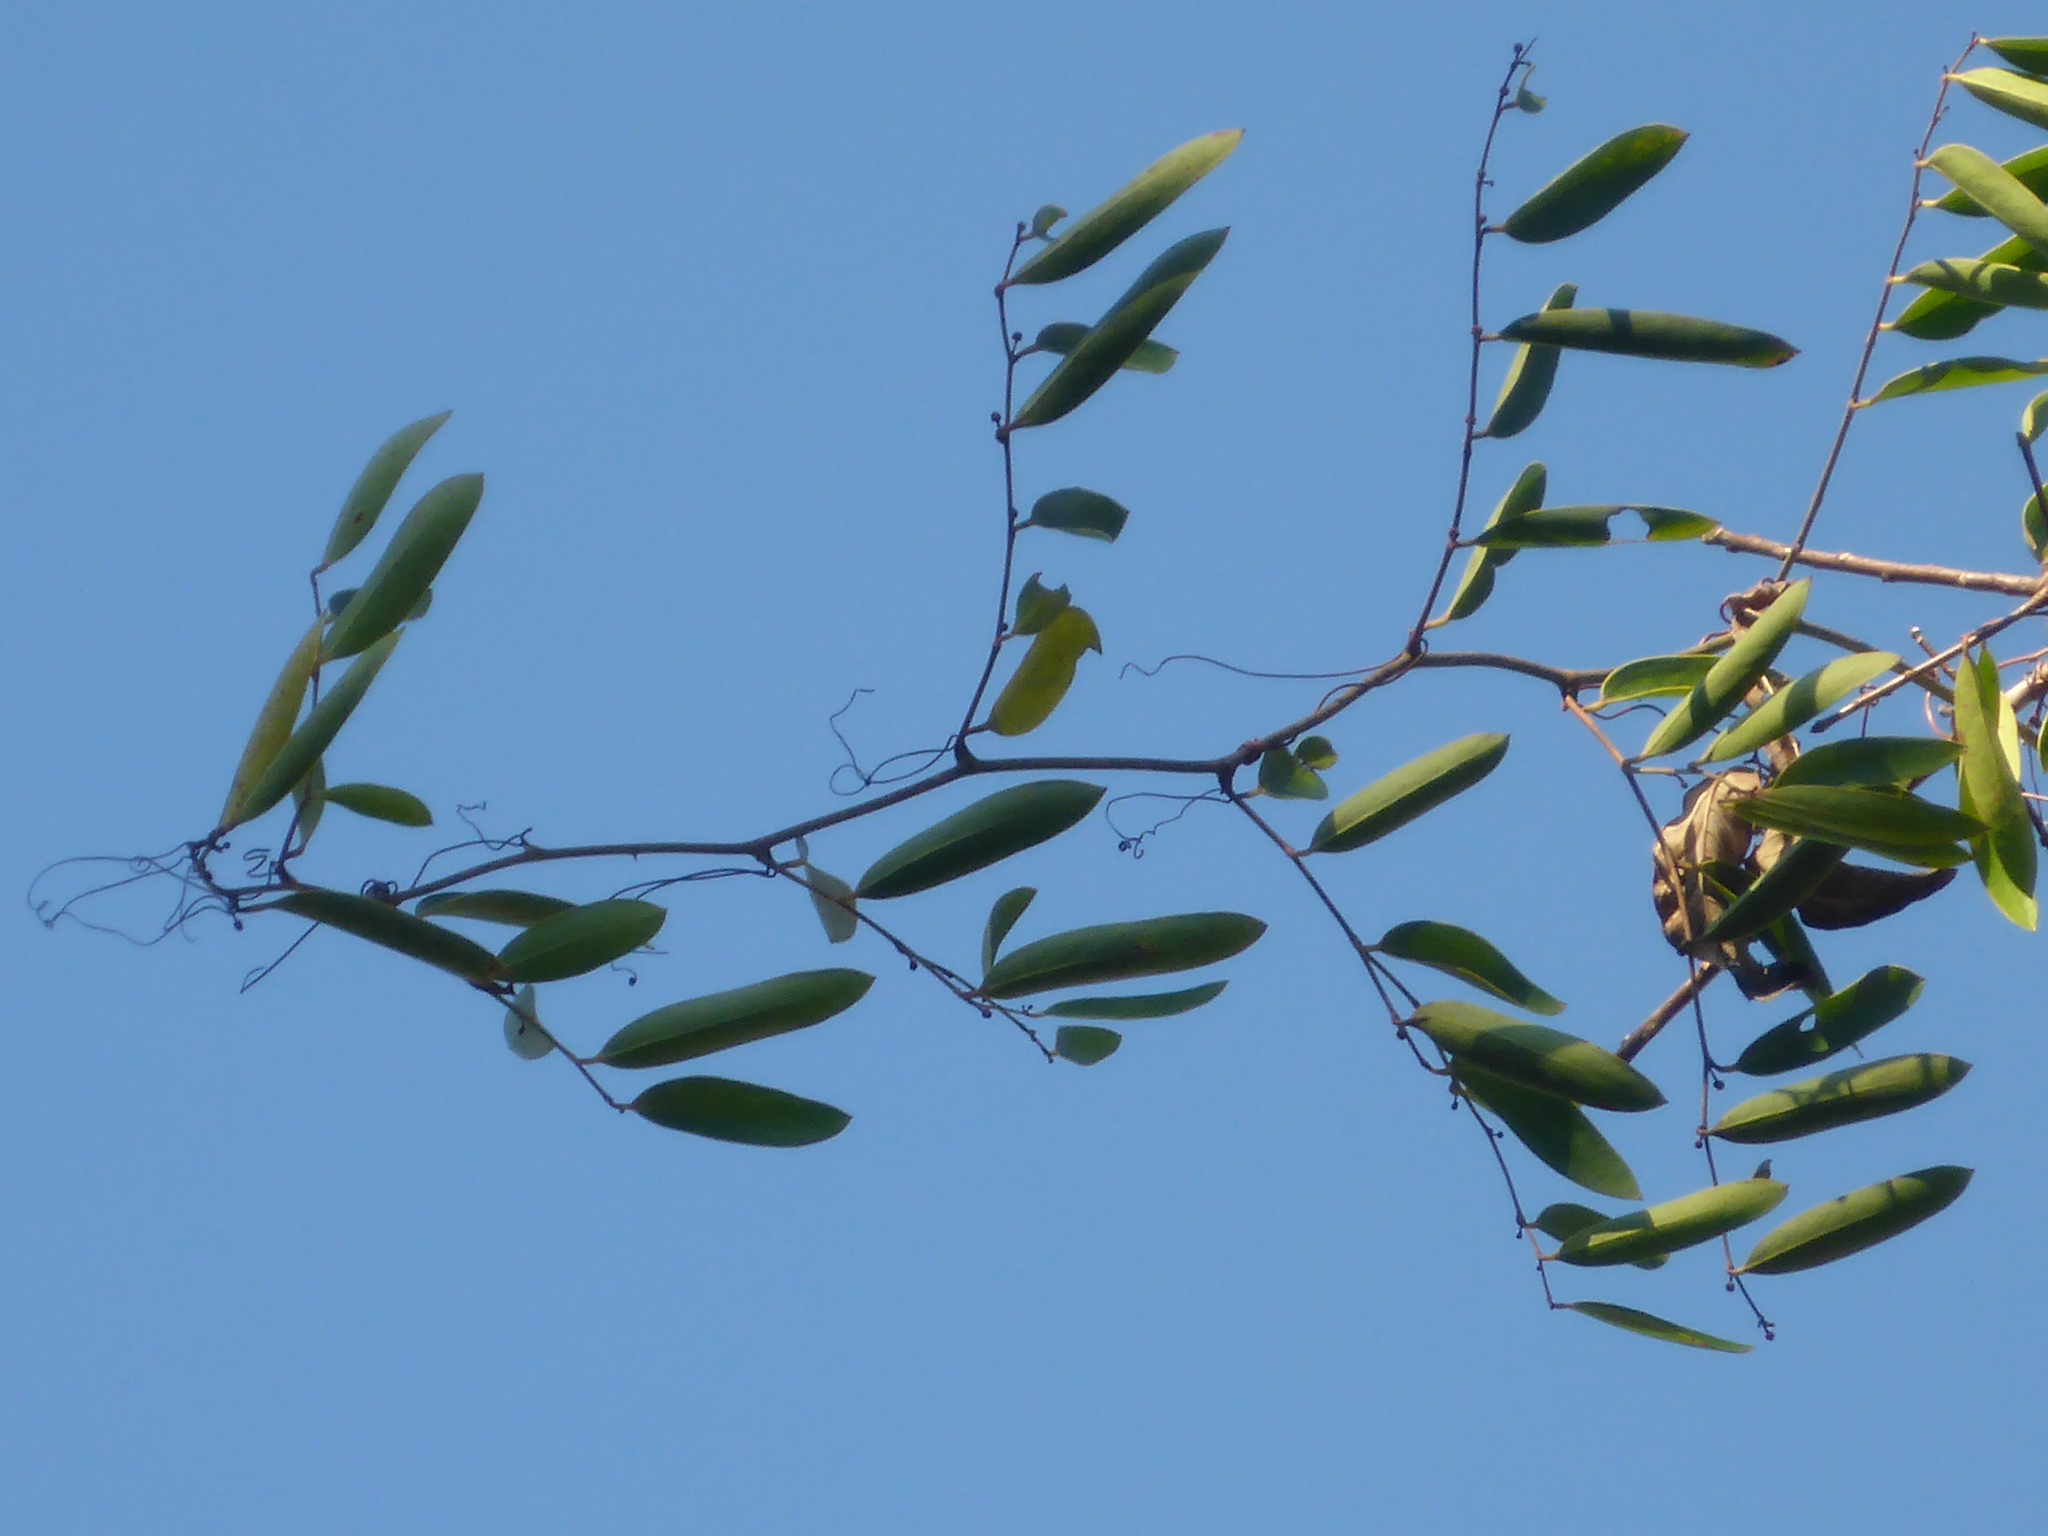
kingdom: Plantae
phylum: Tracheophyta
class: Liliopsida
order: Liliales
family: Smilacaceae
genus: Smilax
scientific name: Smilax laurifolia
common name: Bamboovine
